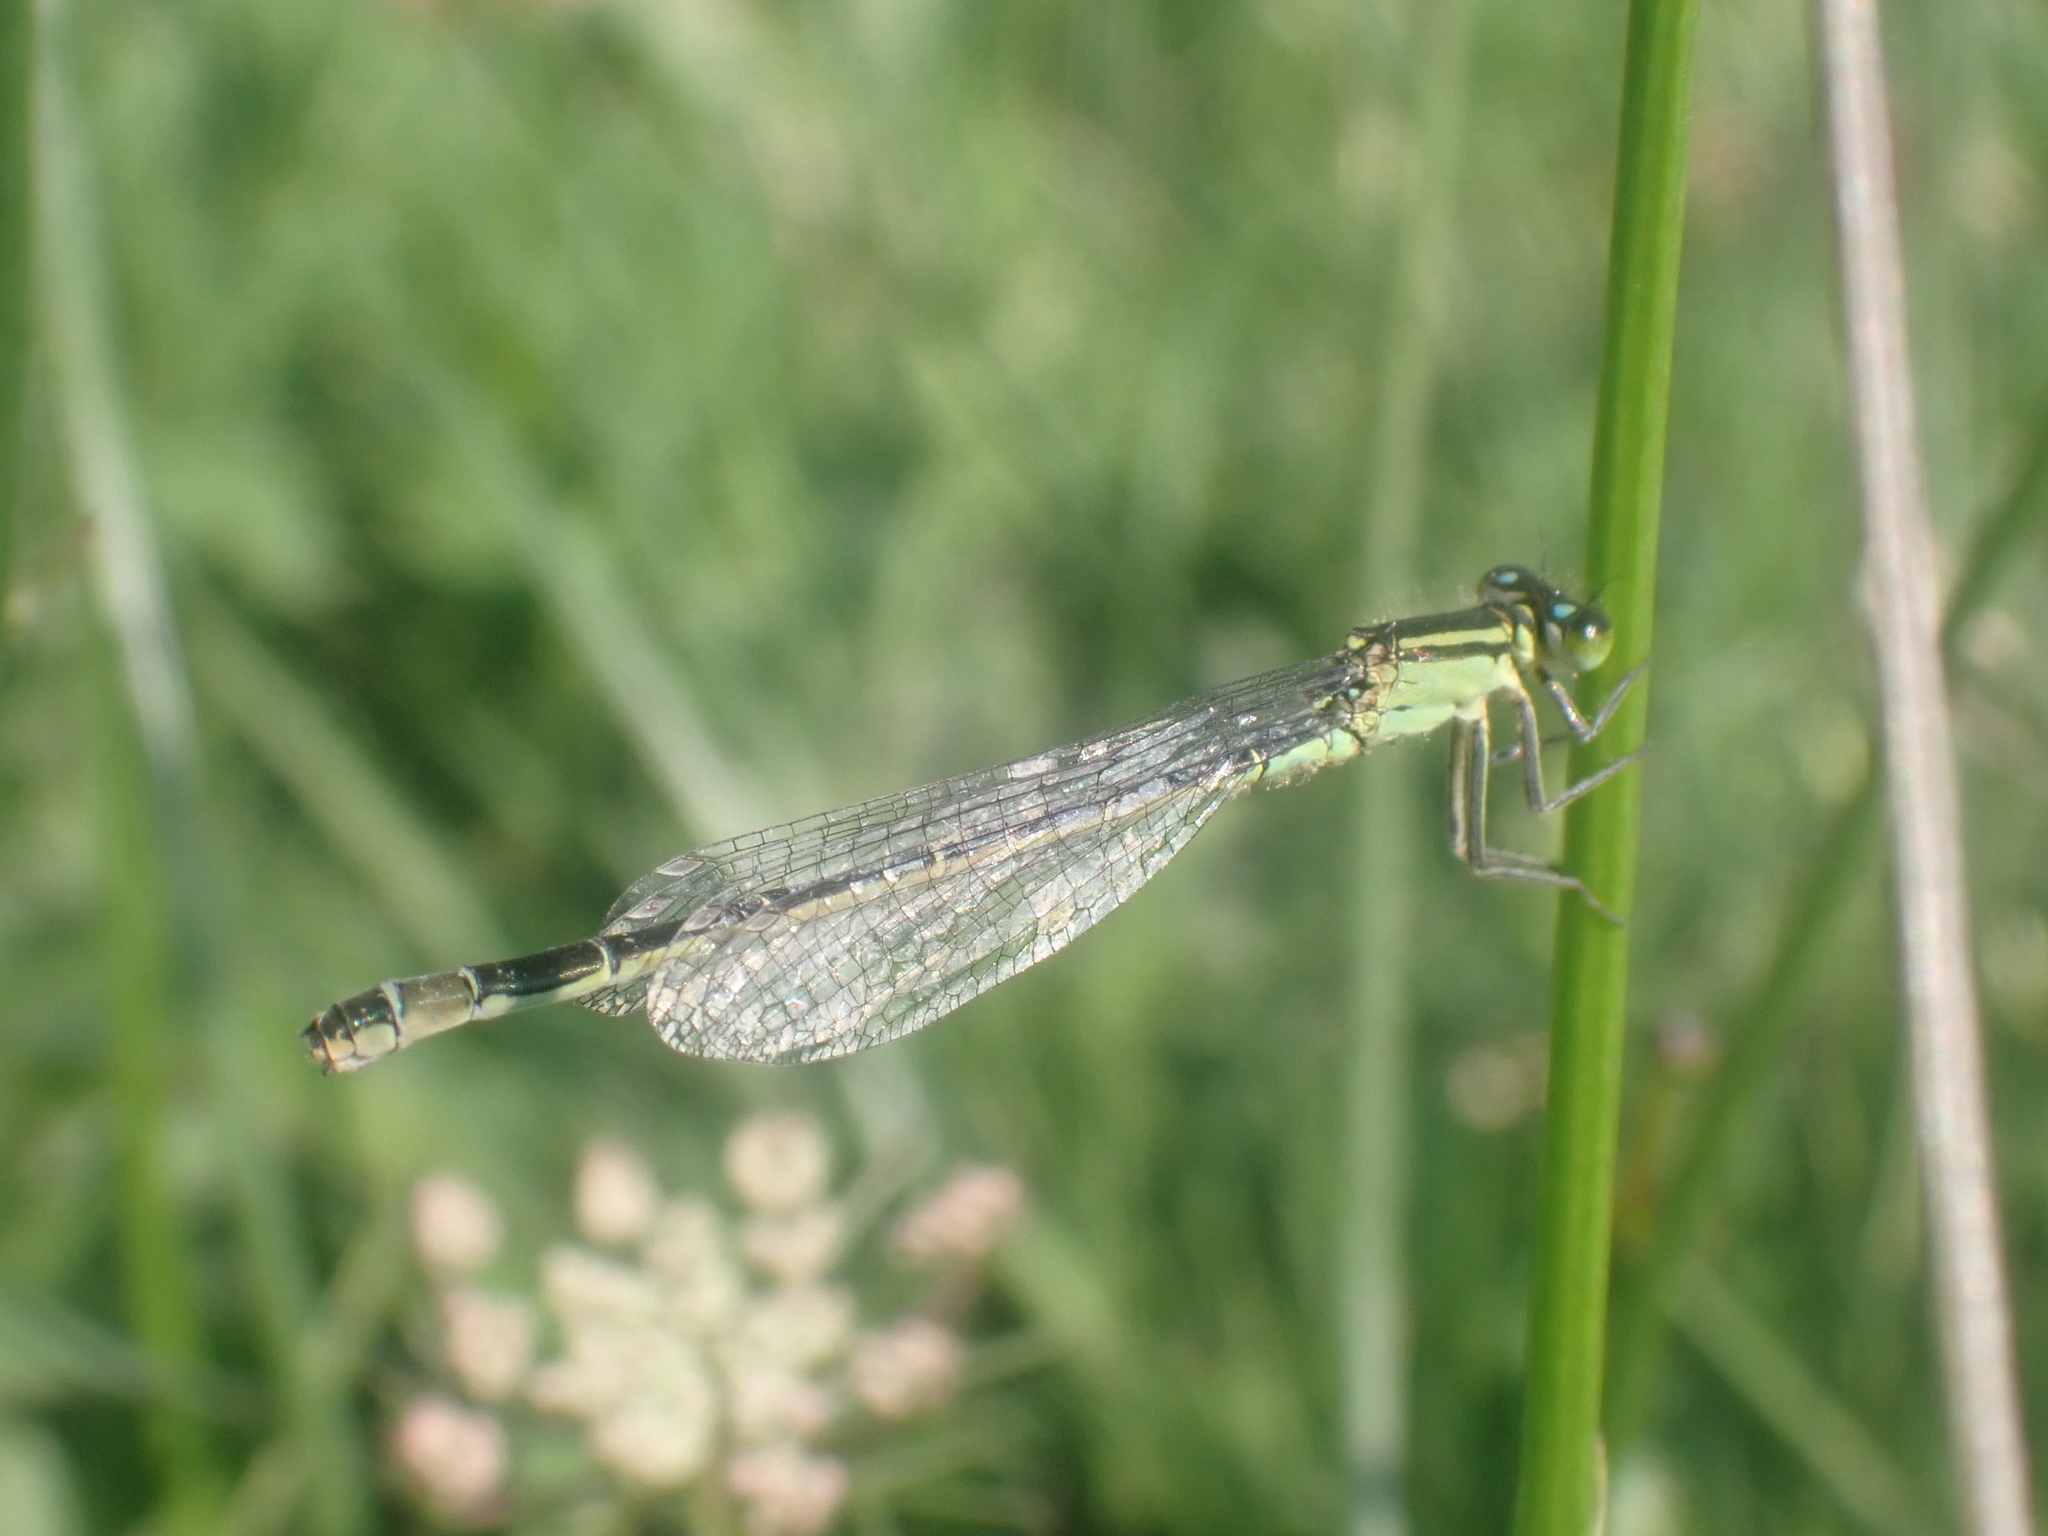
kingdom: Animalia
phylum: Arthropoda
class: Insecta
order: Odonata
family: Coenagrionidae
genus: Ischnura
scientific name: Ischnura elegans
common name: Blue-tailed damselfly
